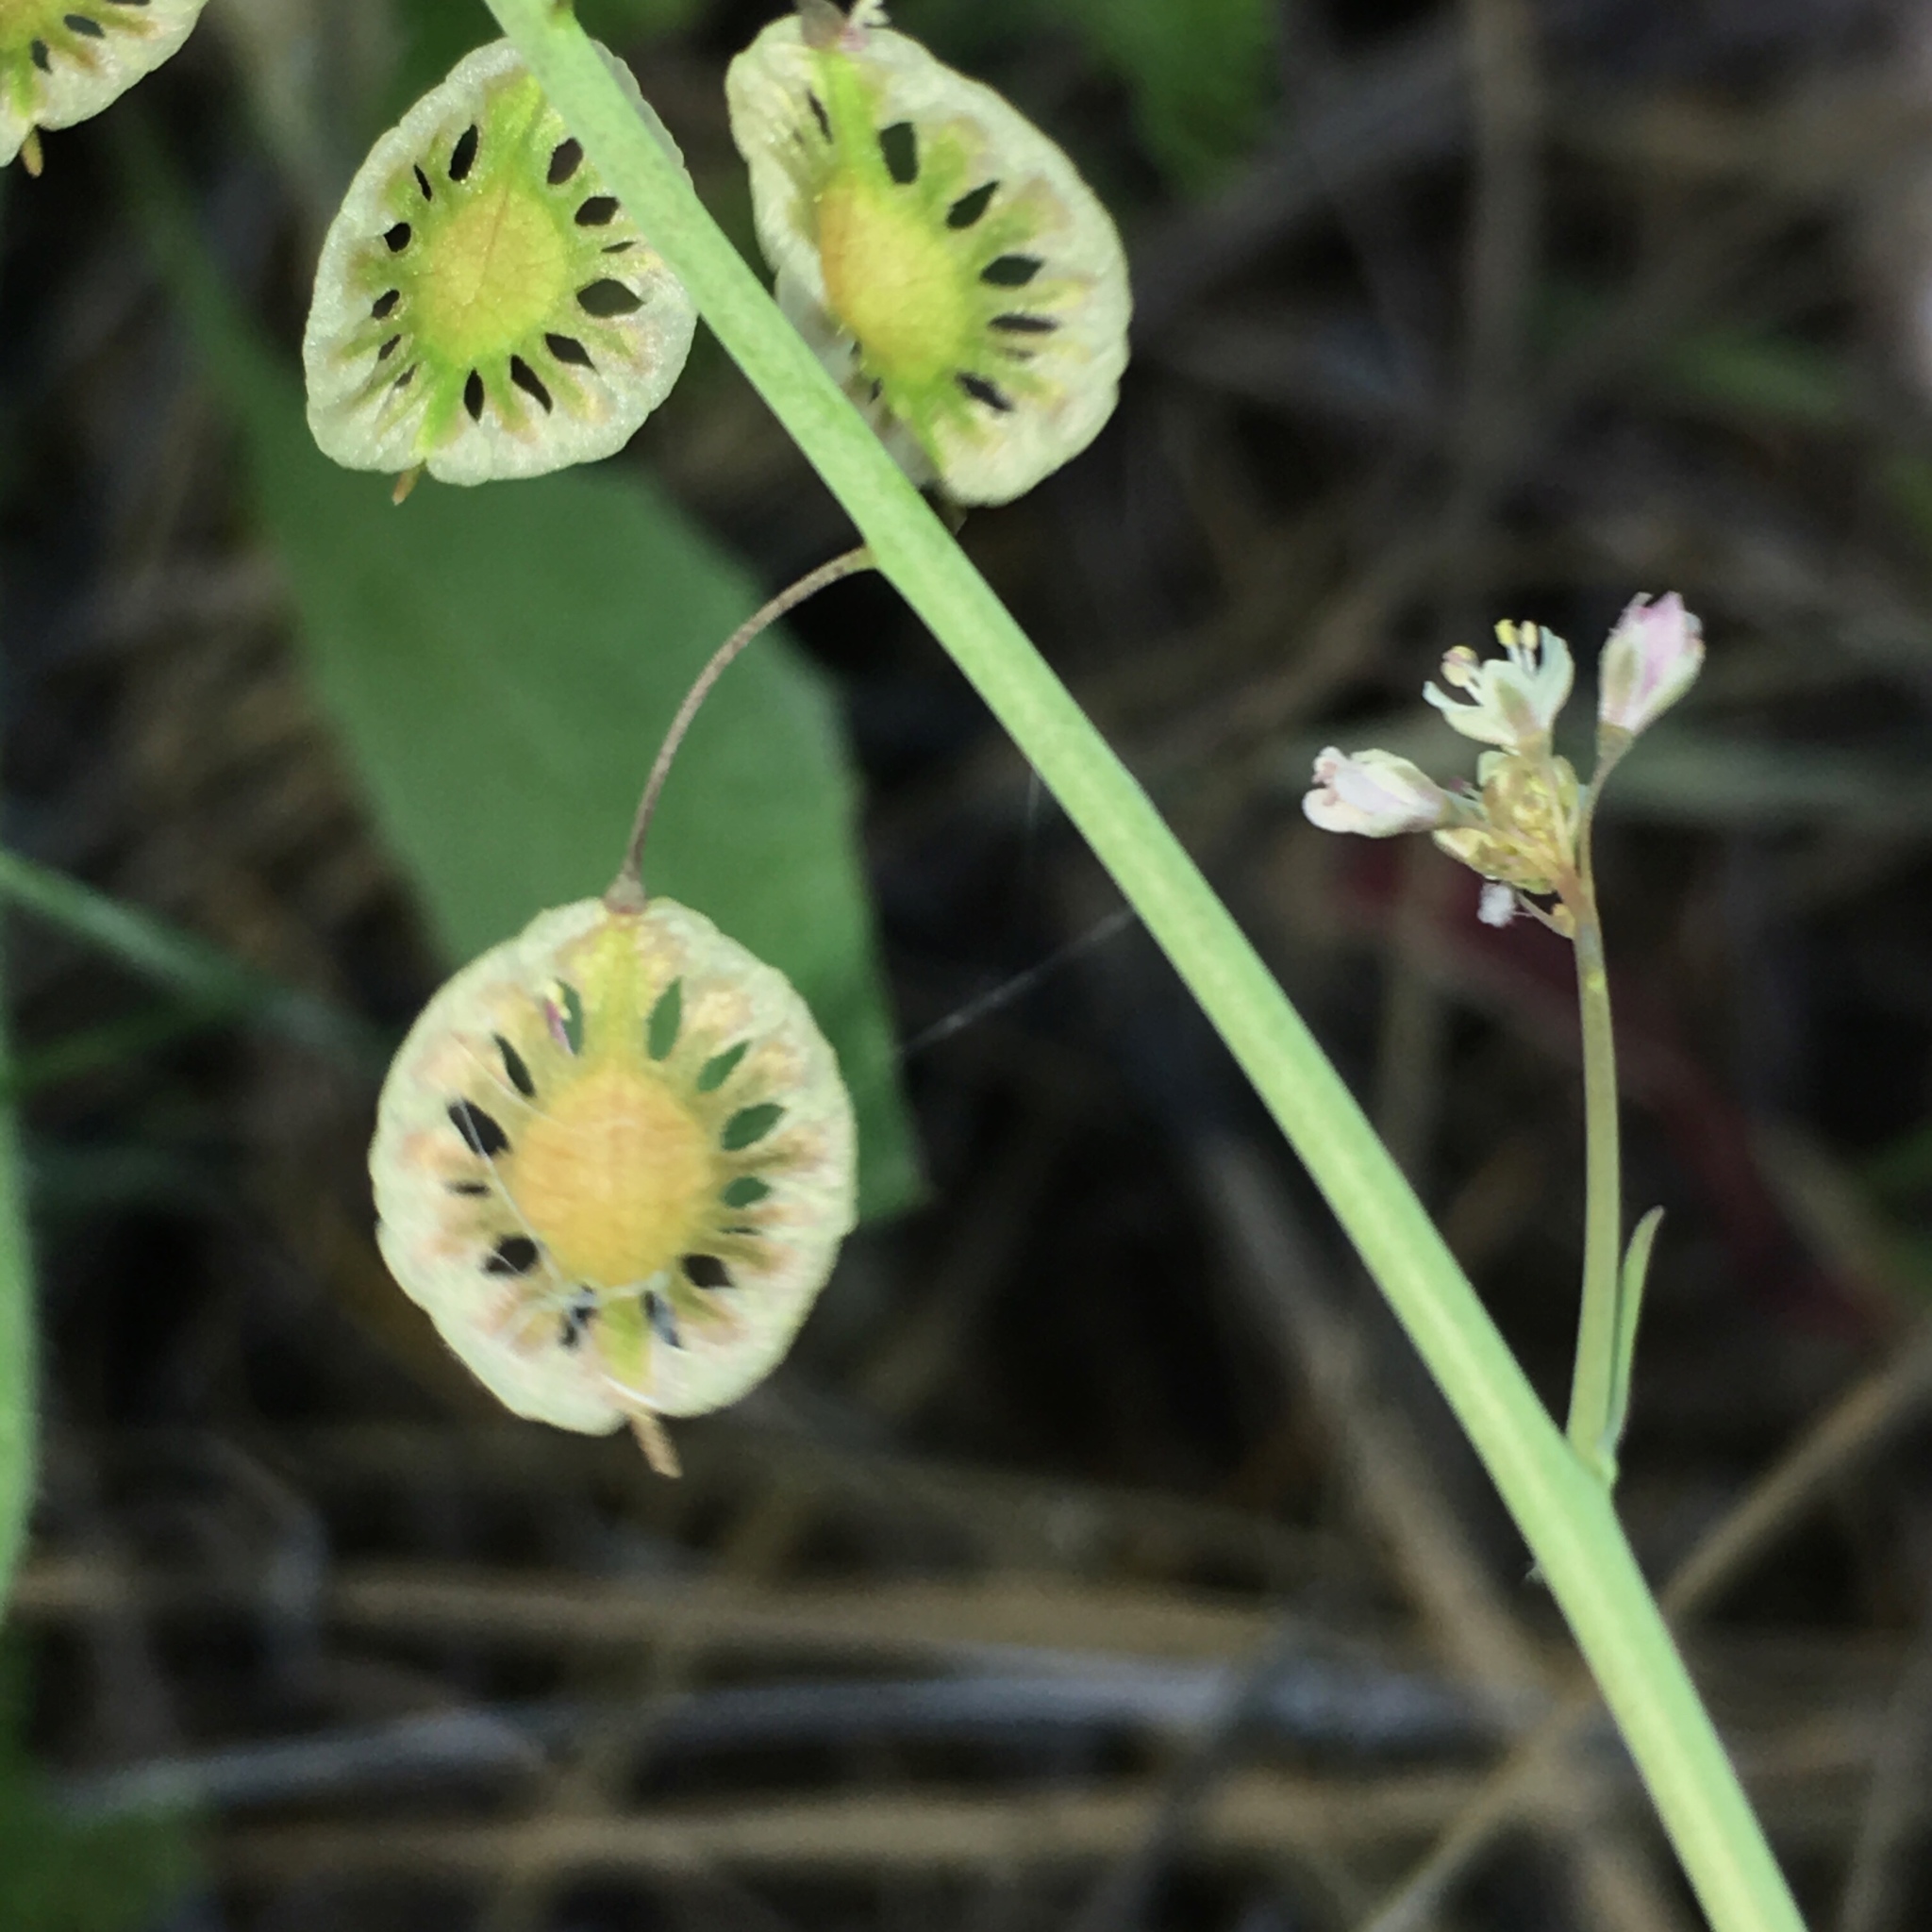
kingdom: Plantae
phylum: Tracheophyta
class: Magnoliopsida
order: Brassicales
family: Brassicaceae
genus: Thysanocarpus
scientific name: Thysanocarpus curvipes
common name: Sand fringepod
